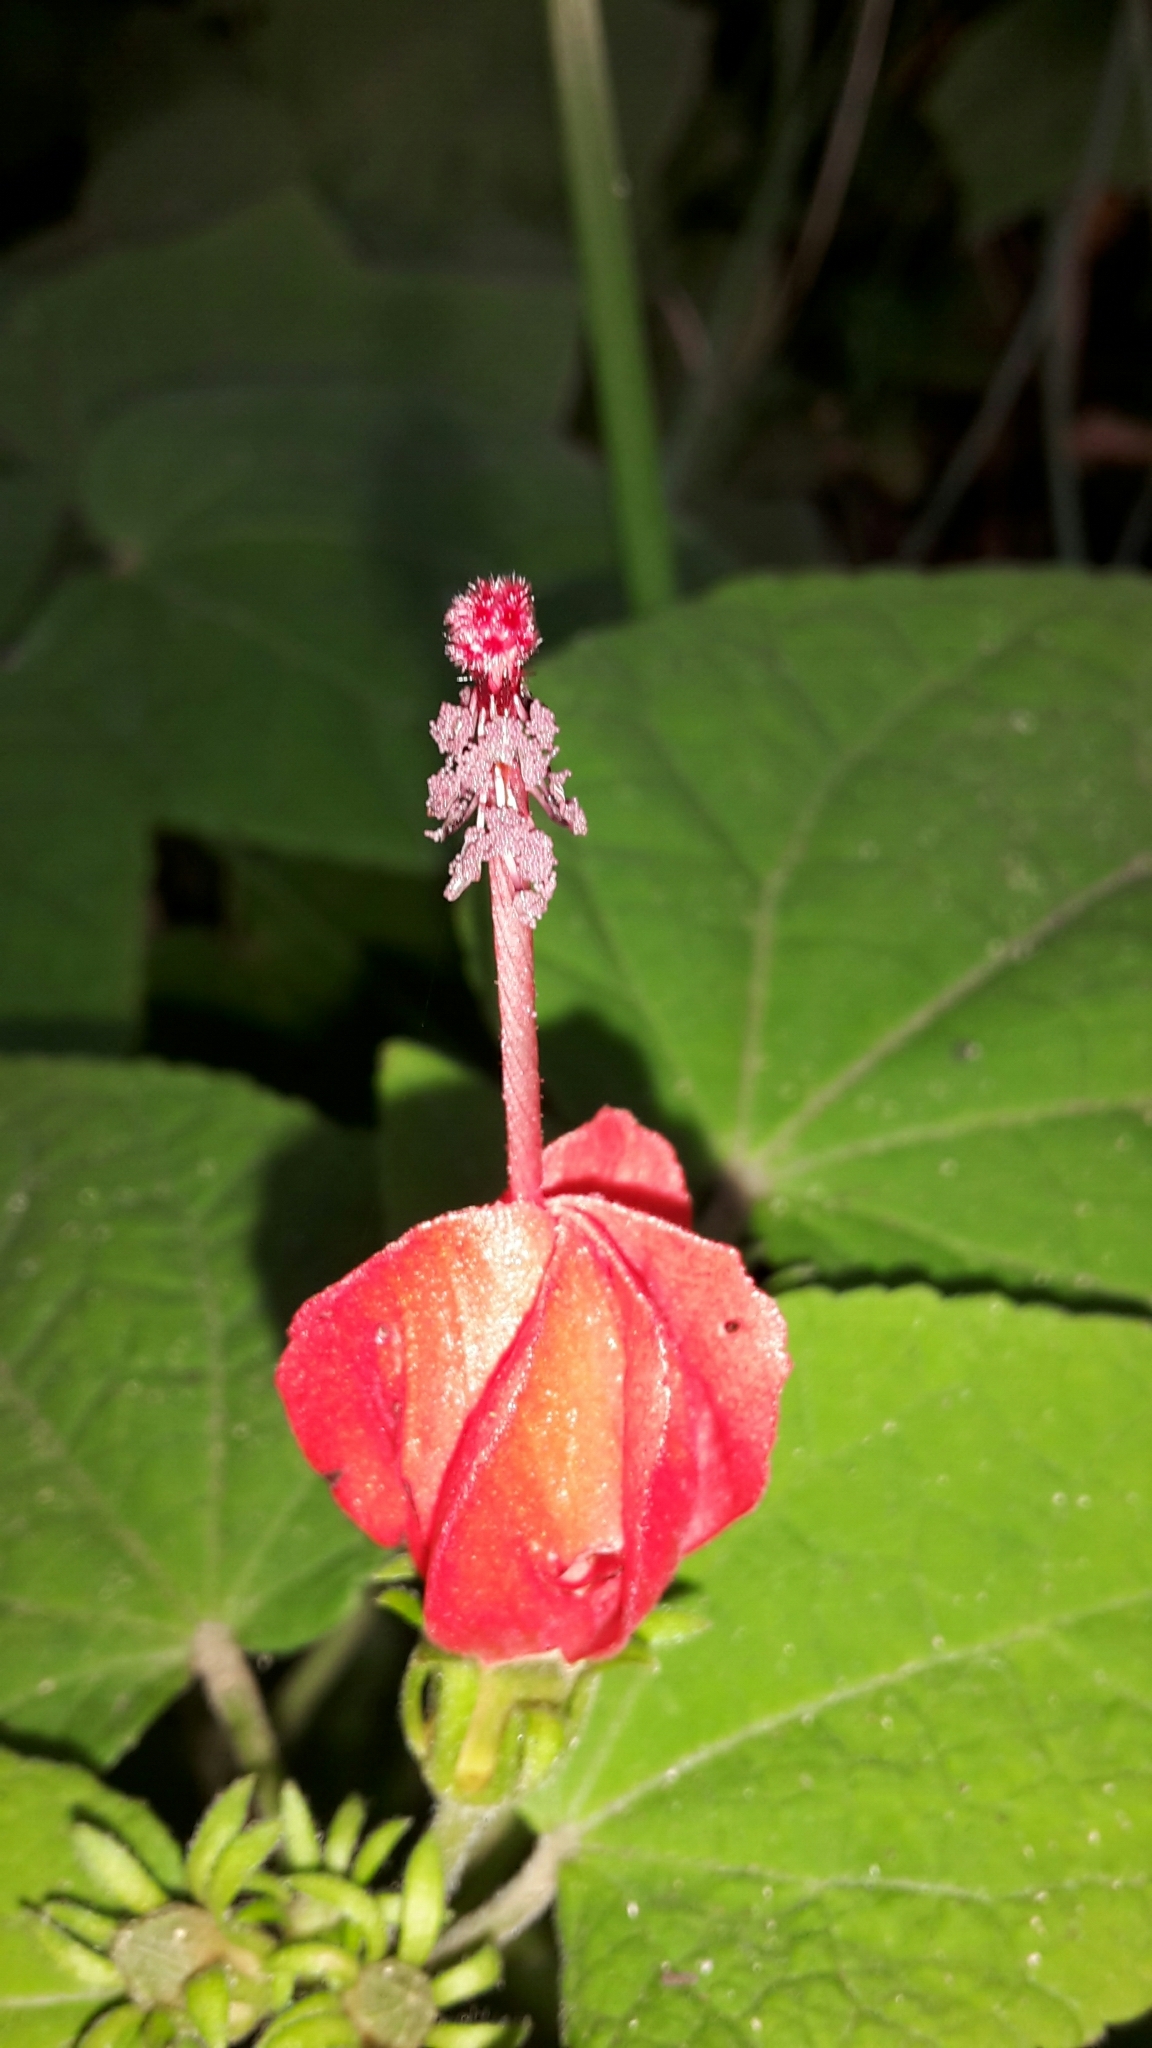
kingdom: Plantae
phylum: Tracheophyta
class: Magnoliopsida
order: Malvales
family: Malvaceae
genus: Malvaviscus
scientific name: Malvaviscus arboreus
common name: Wax mallow
